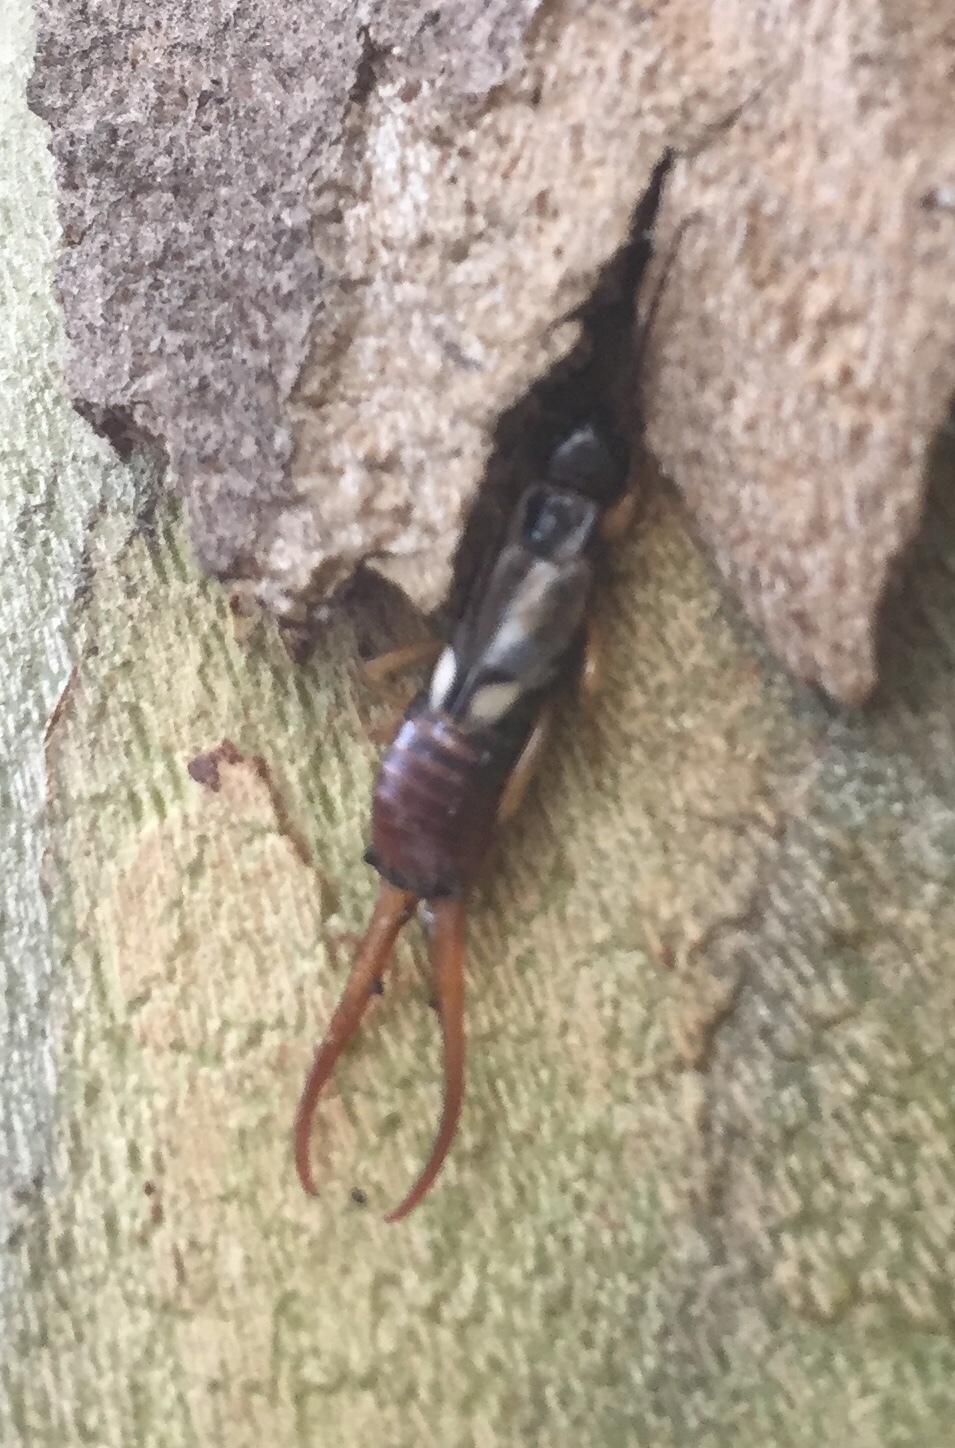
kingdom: Animalia
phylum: Arthropoda
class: Insecta
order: Dermaptera
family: Forficulidae
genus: Forficula
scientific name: Forficula
